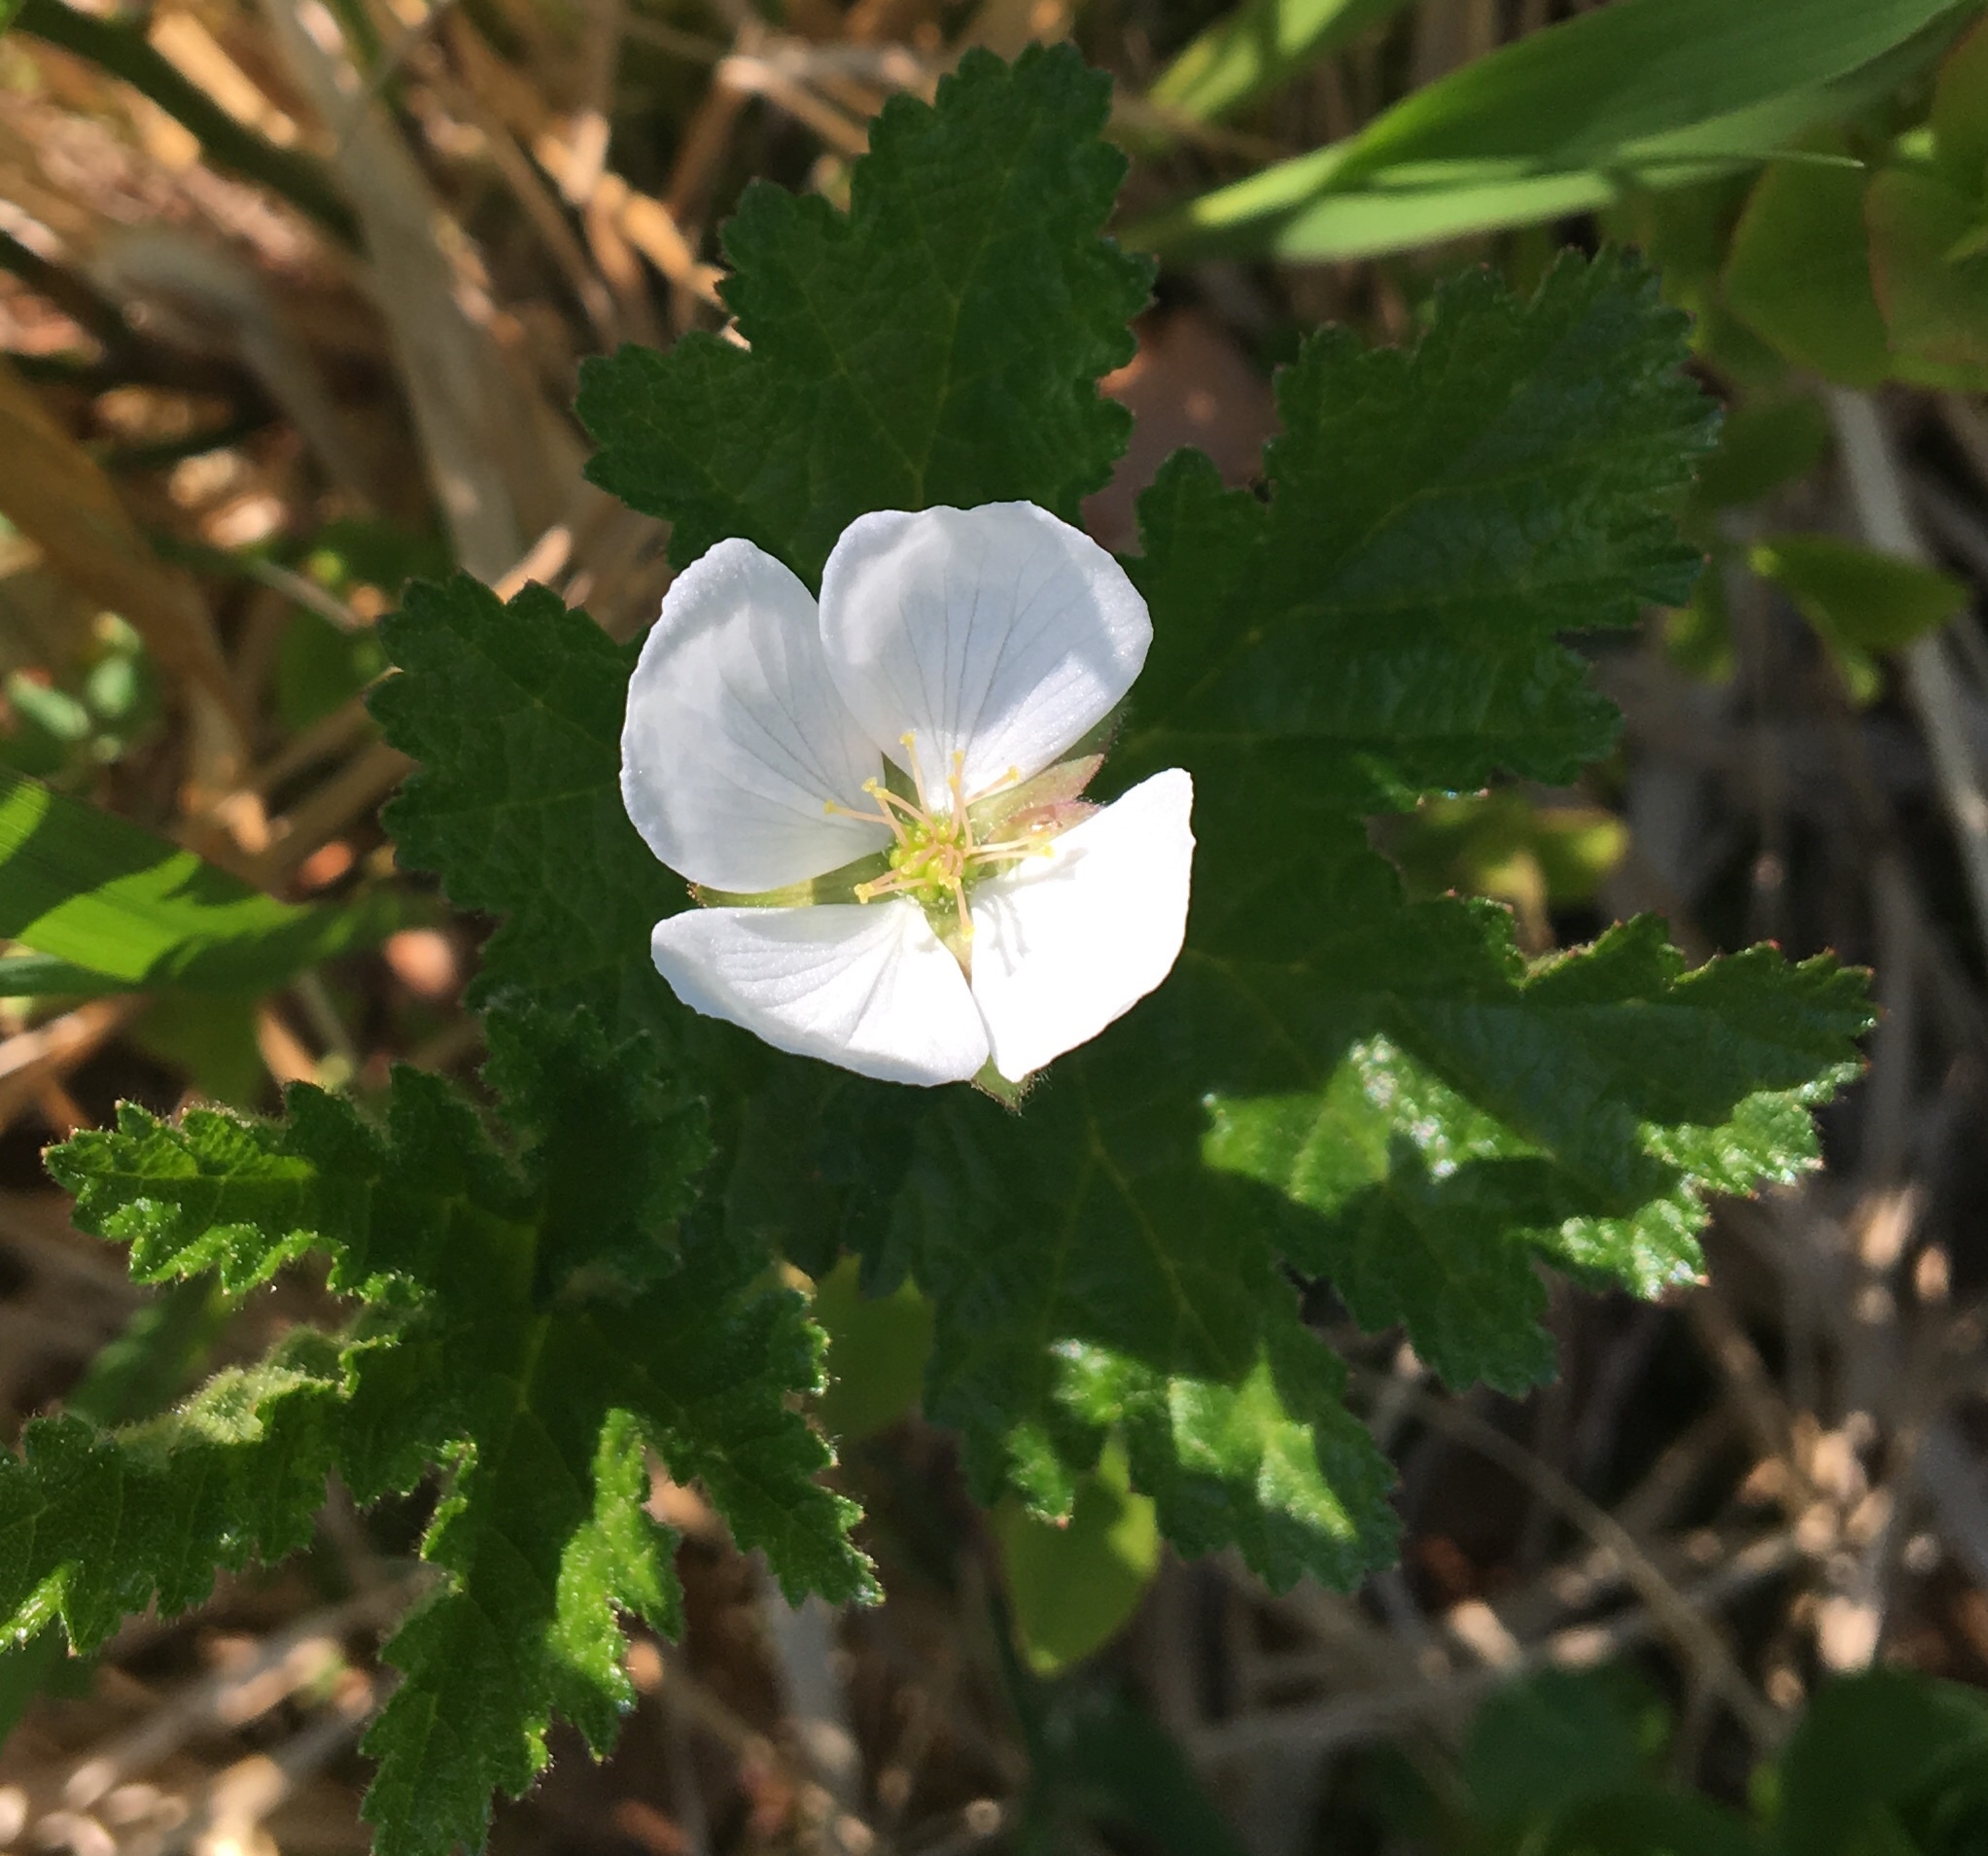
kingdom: Plantae
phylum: Tracheophyta
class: Magnoliopsida
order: Rosales
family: Rosaceae
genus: Rubus
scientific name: Rubus chamaemorus
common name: Cloudberry
